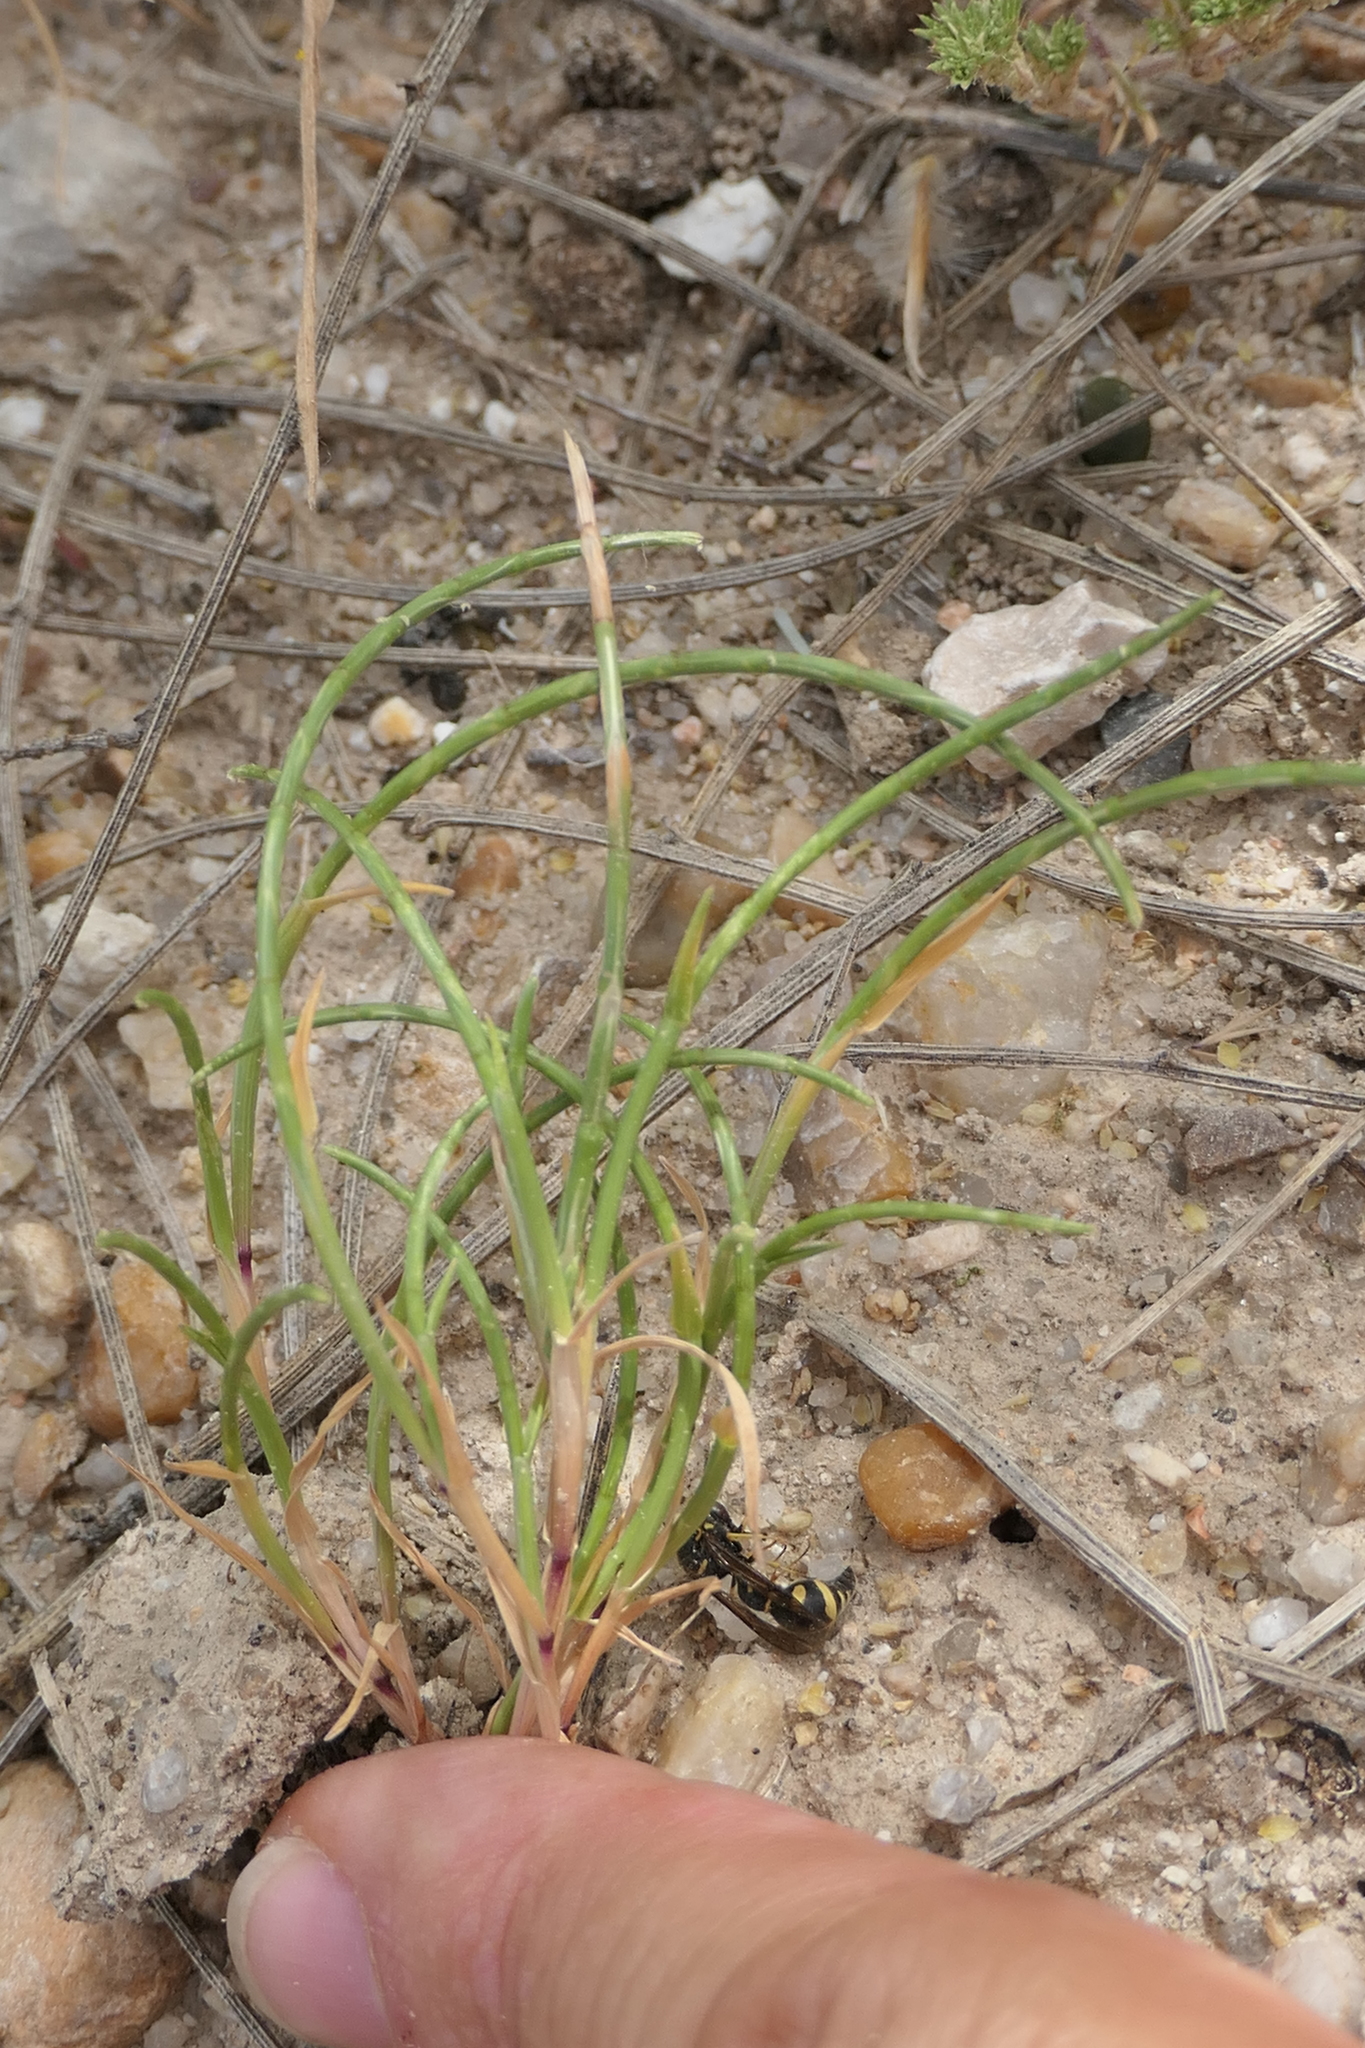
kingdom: Plantae
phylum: Tracheophyta
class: Liliopsida
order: Poales
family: Poaceae
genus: Parapholis
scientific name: Parapholis incurva
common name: Curved sicklegrass
